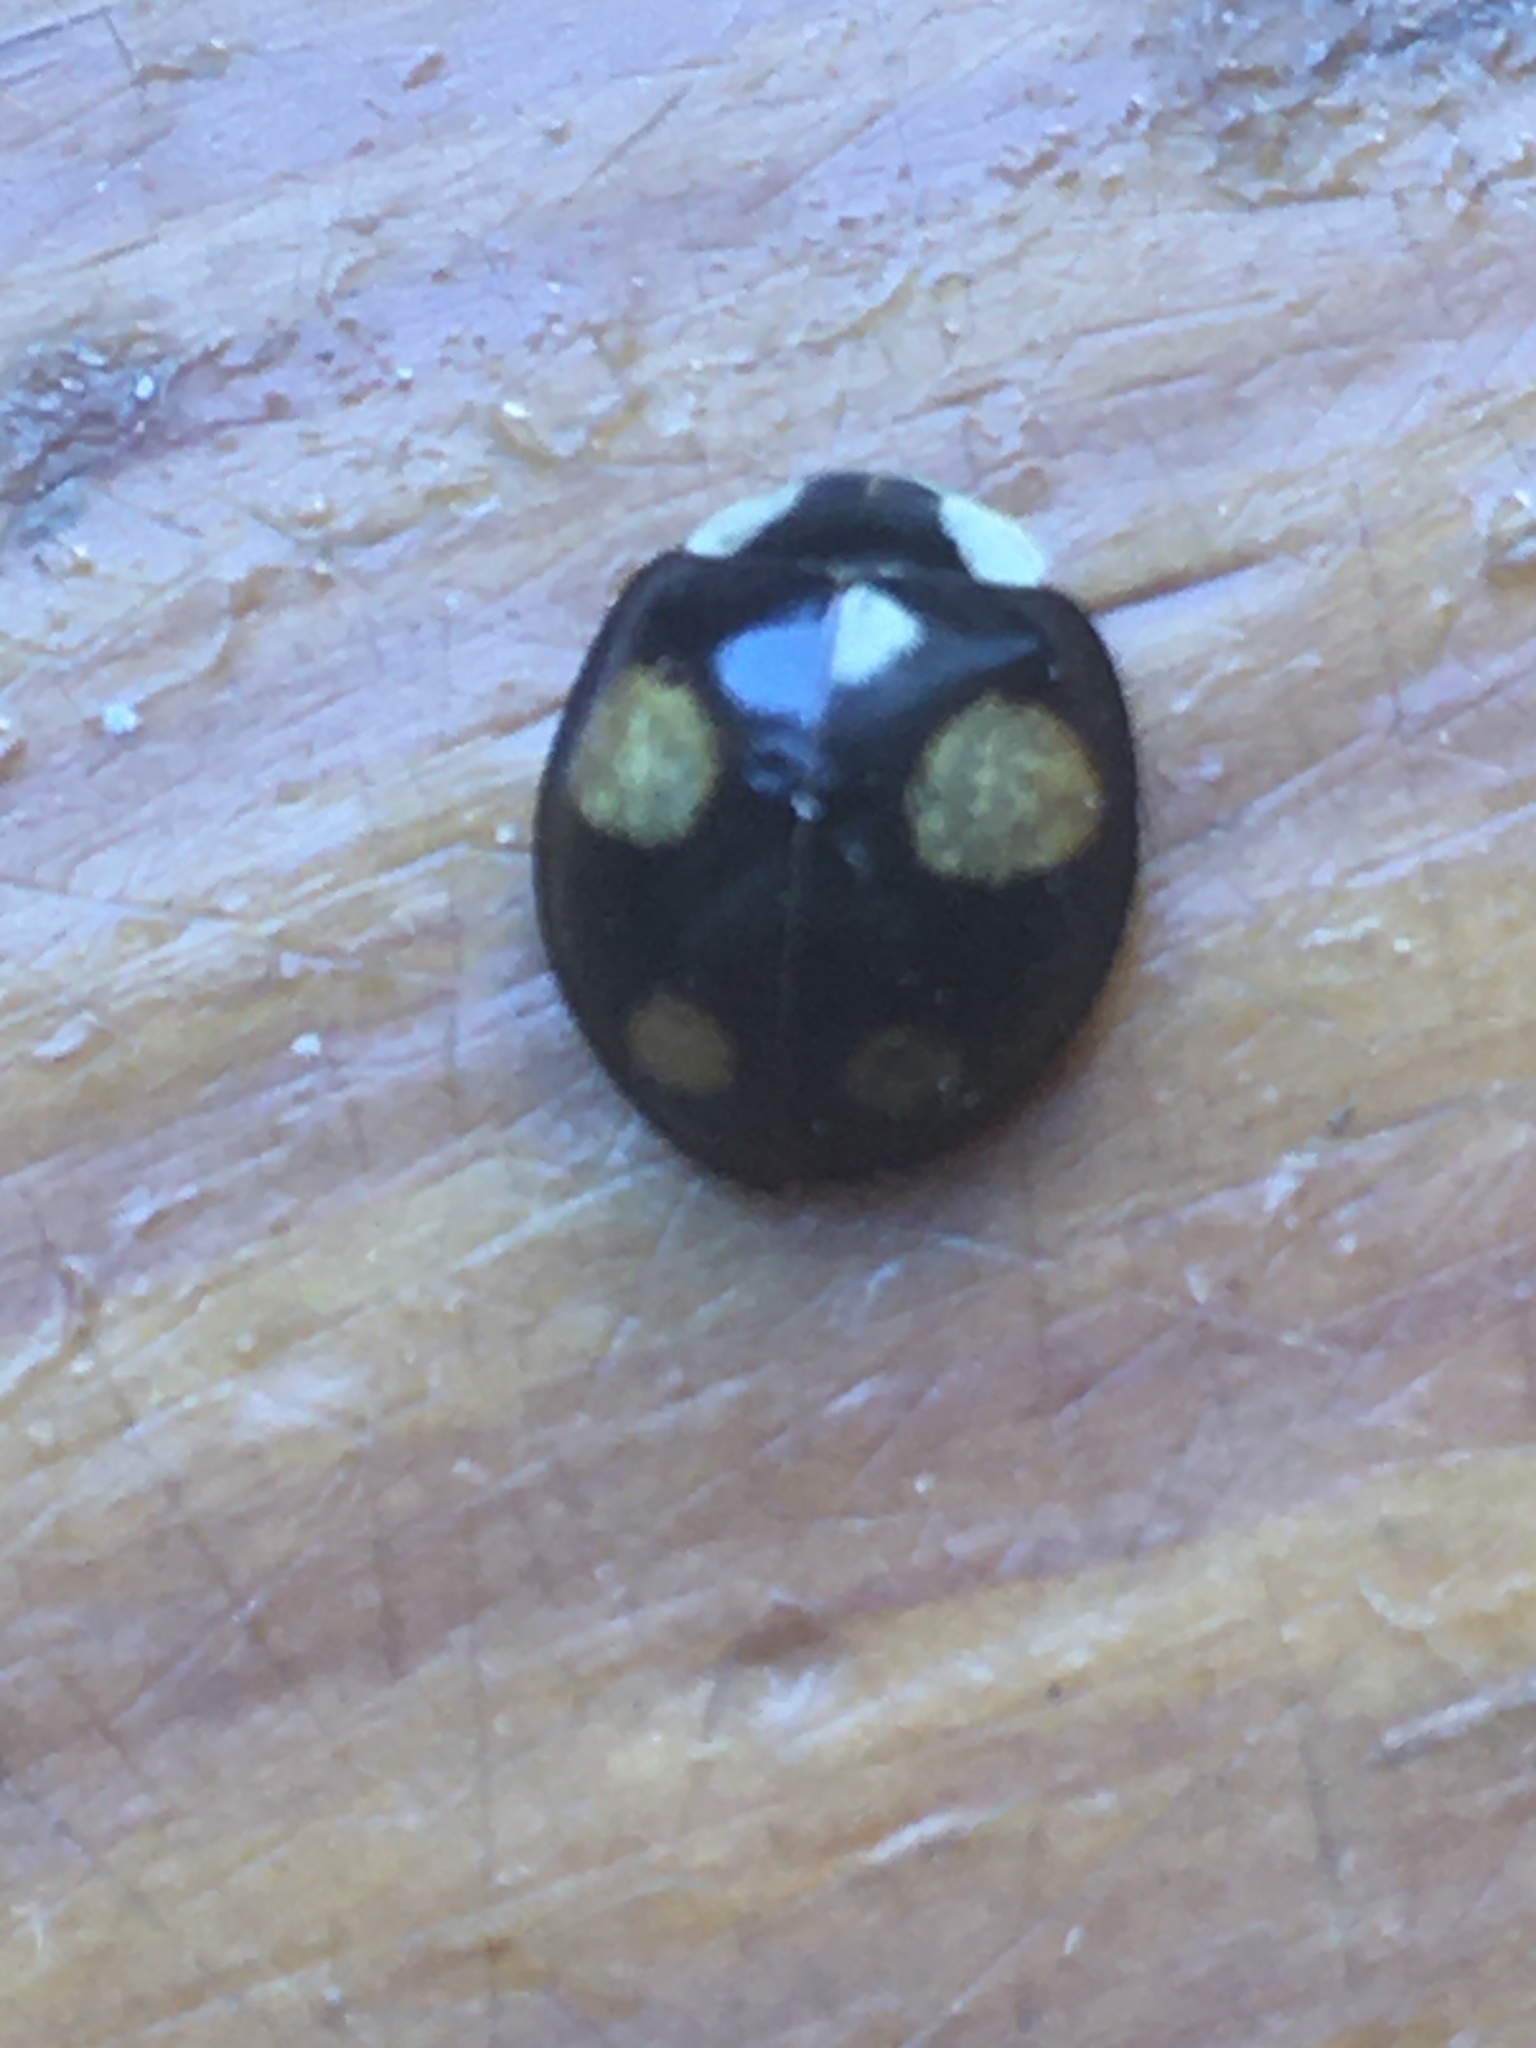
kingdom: Animalia
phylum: Arthropoda
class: Insecta
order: Coleoptera
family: Coccinellidae
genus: Harmonia
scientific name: Harmonia axyridis
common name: Harlequin ladybird
